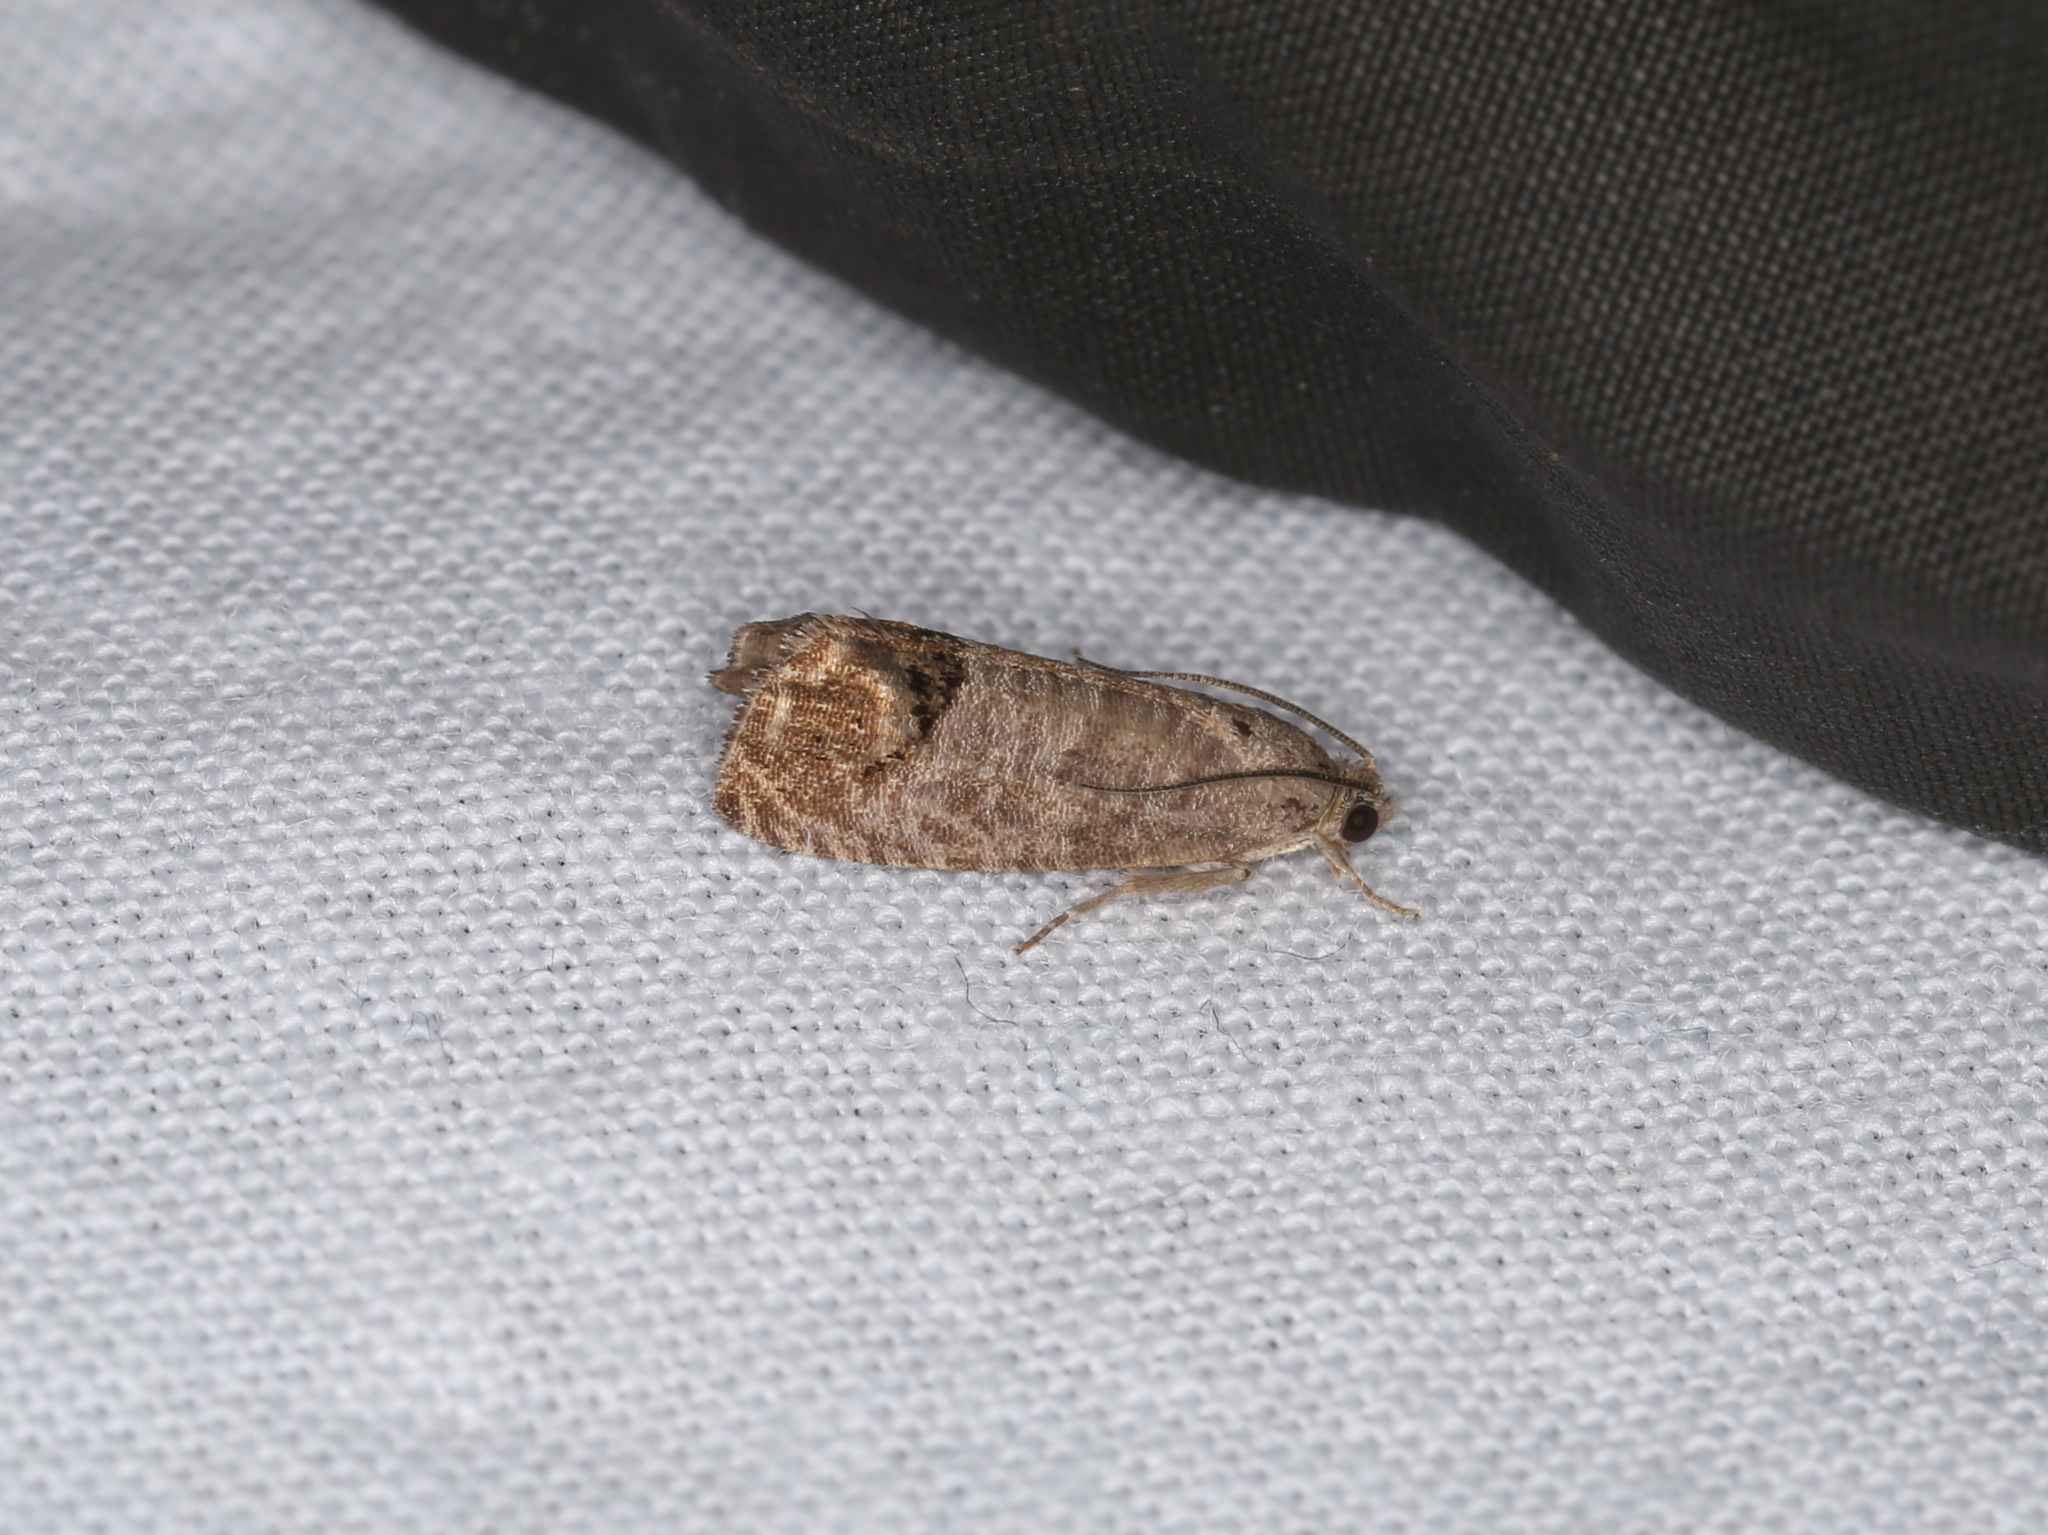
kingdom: Animalia
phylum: Arthropoda
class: Insecta
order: Lepidoptera
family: Tortricidae
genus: Cydia
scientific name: Cydia pomonella
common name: Codling moth
